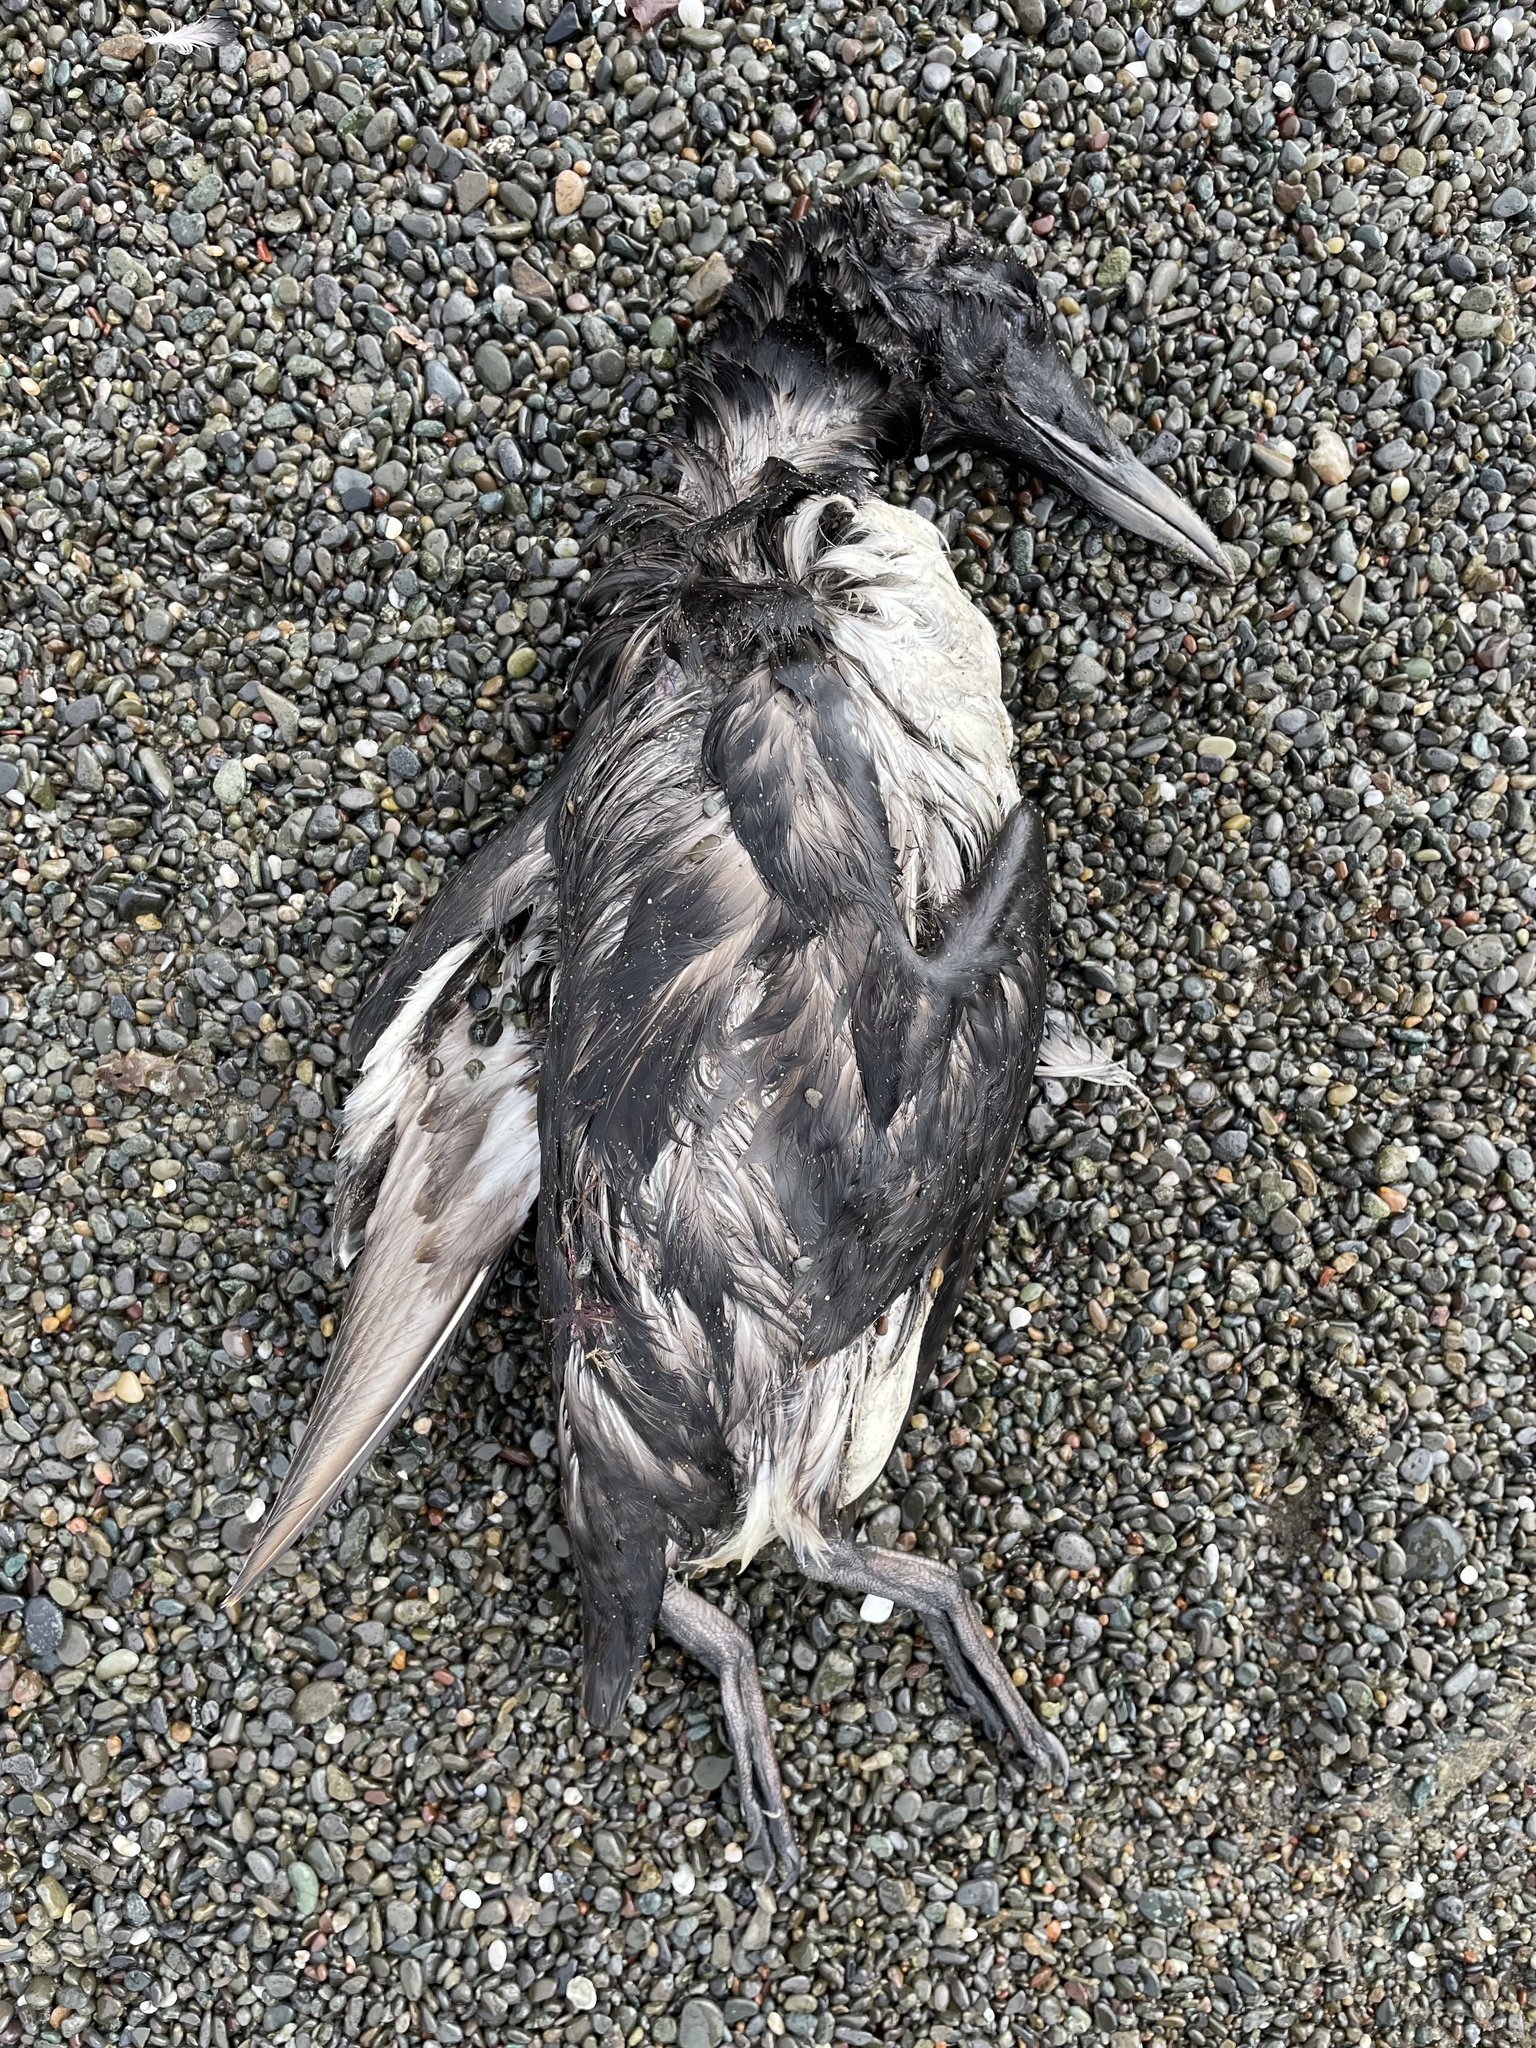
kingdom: Animalia
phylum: Chordata
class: Aves
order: Charadriiformes
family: Alcidae
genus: Uria
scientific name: Uria aalge
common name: Common murre
